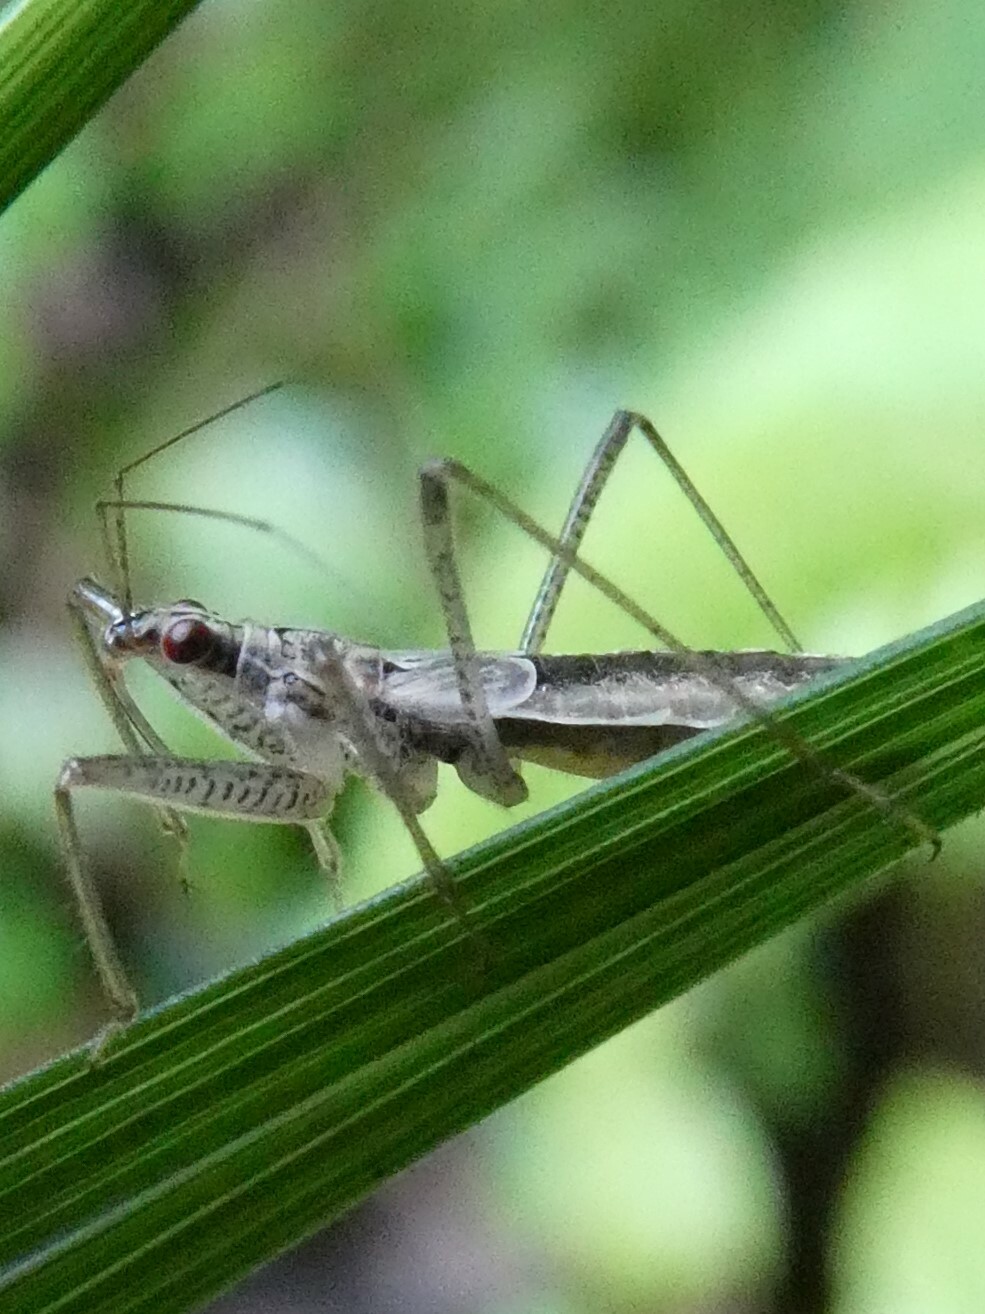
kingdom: Animalia
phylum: Arthropoda
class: Insecta
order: Hemiptera
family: Nabidae
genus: Nabicula
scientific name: Nabicula nigrovittata
